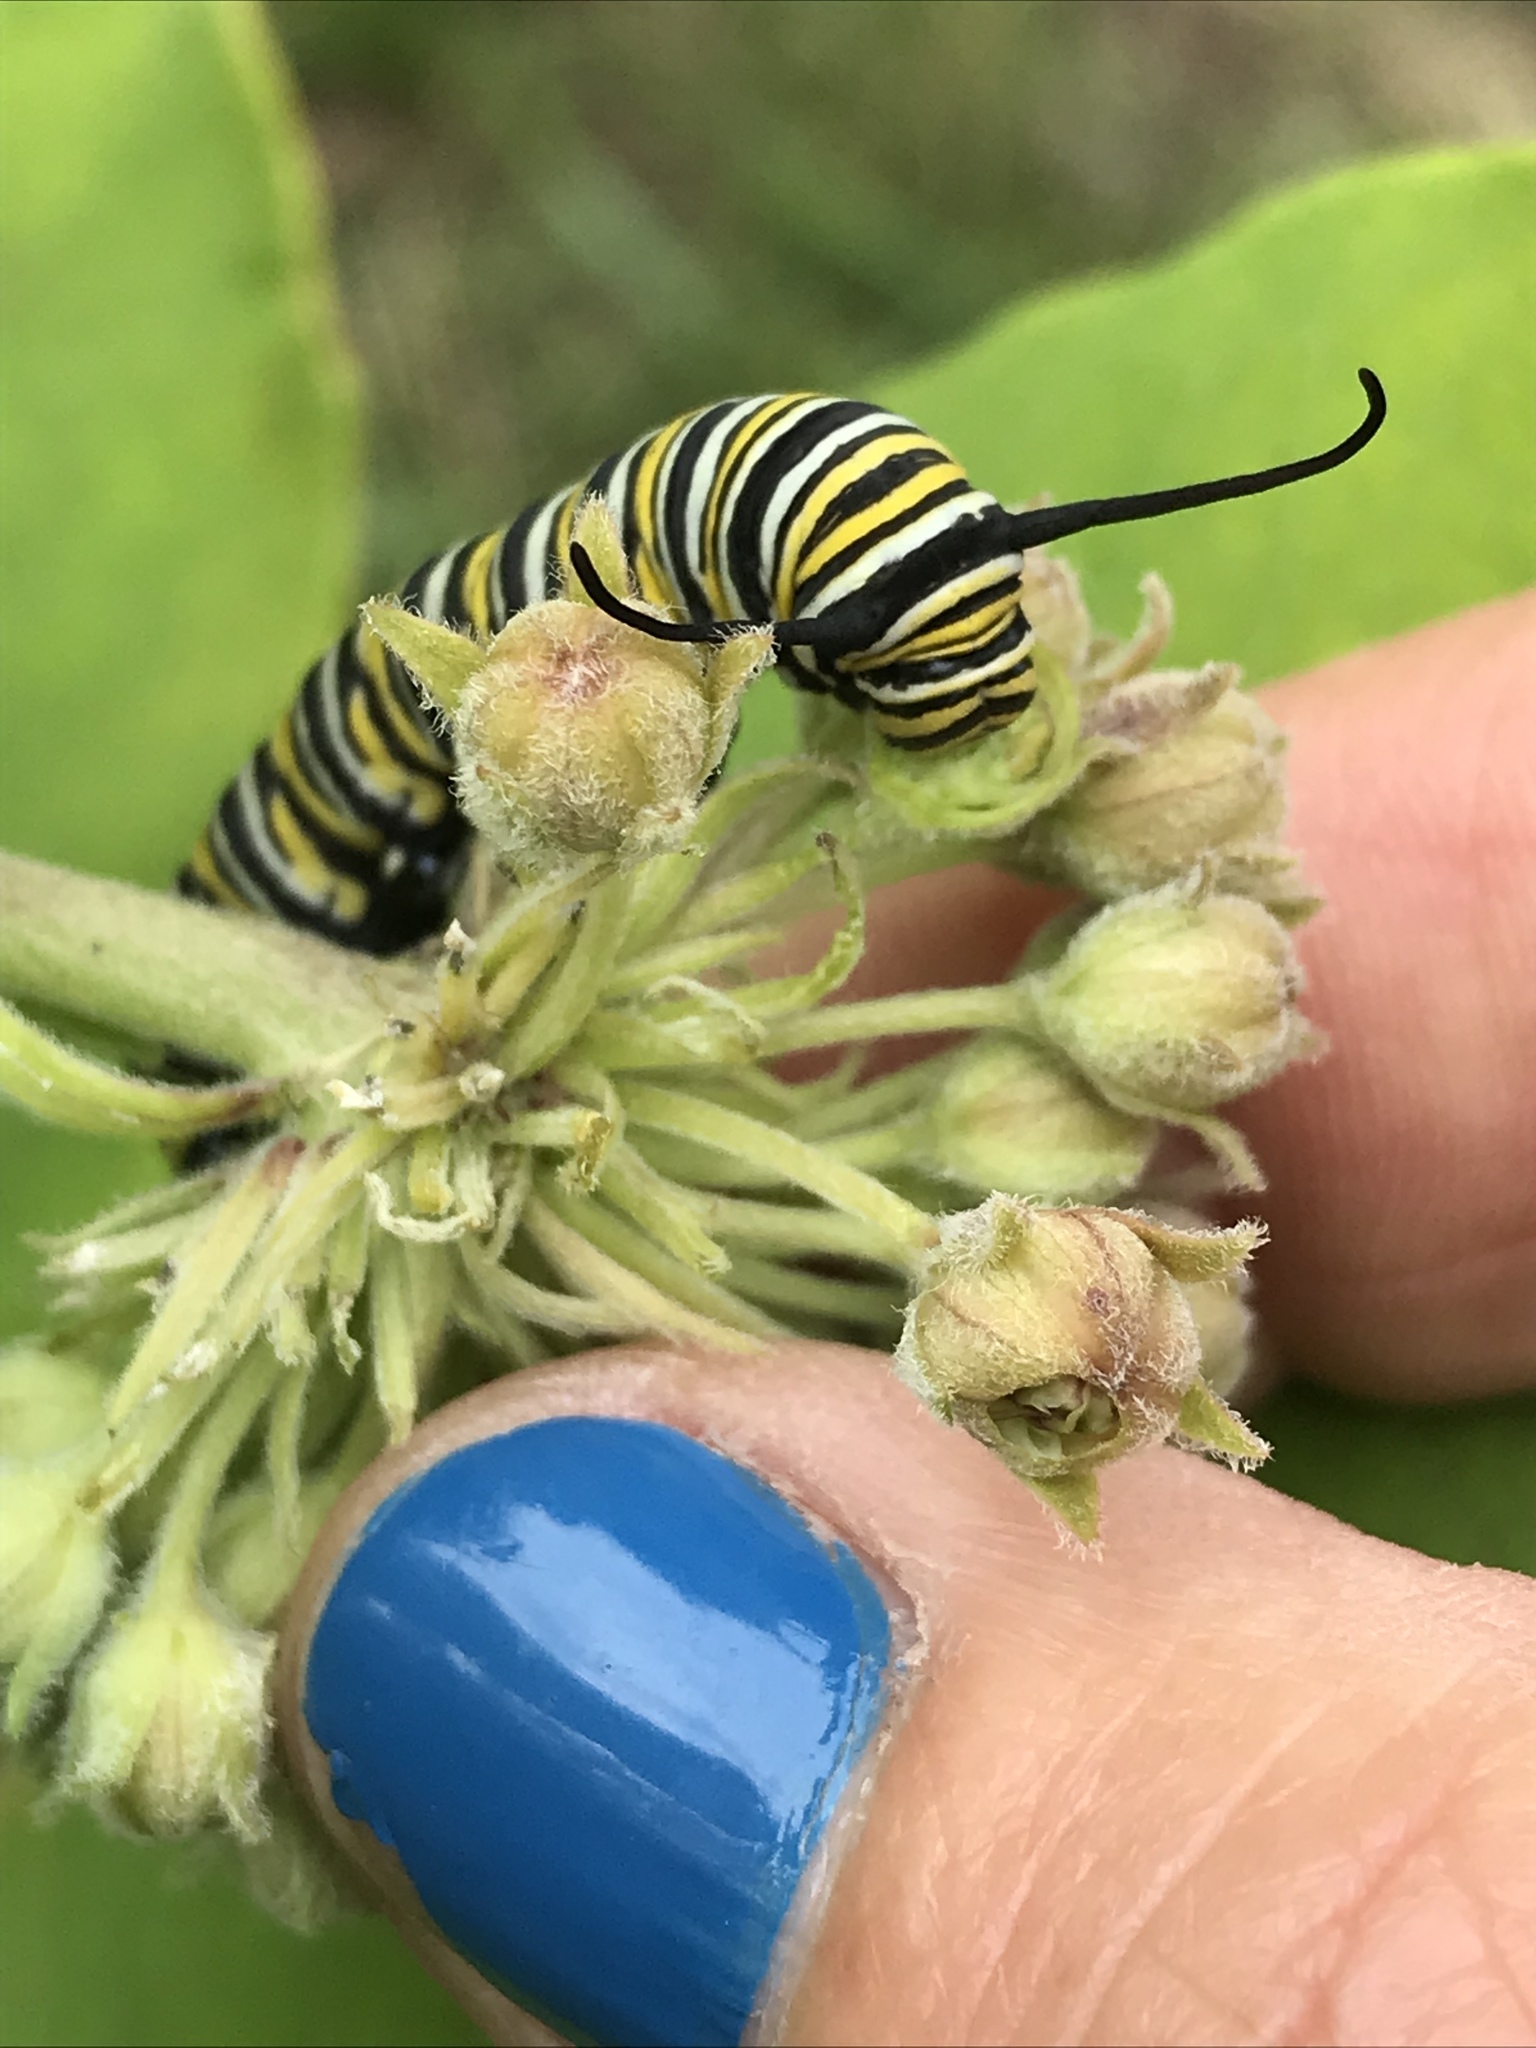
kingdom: Animalia
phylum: Arthropoda
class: Insecta
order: Lepidoptera
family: Nymphalidae
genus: Danaus
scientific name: Danaus plexippus
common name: Monarch
